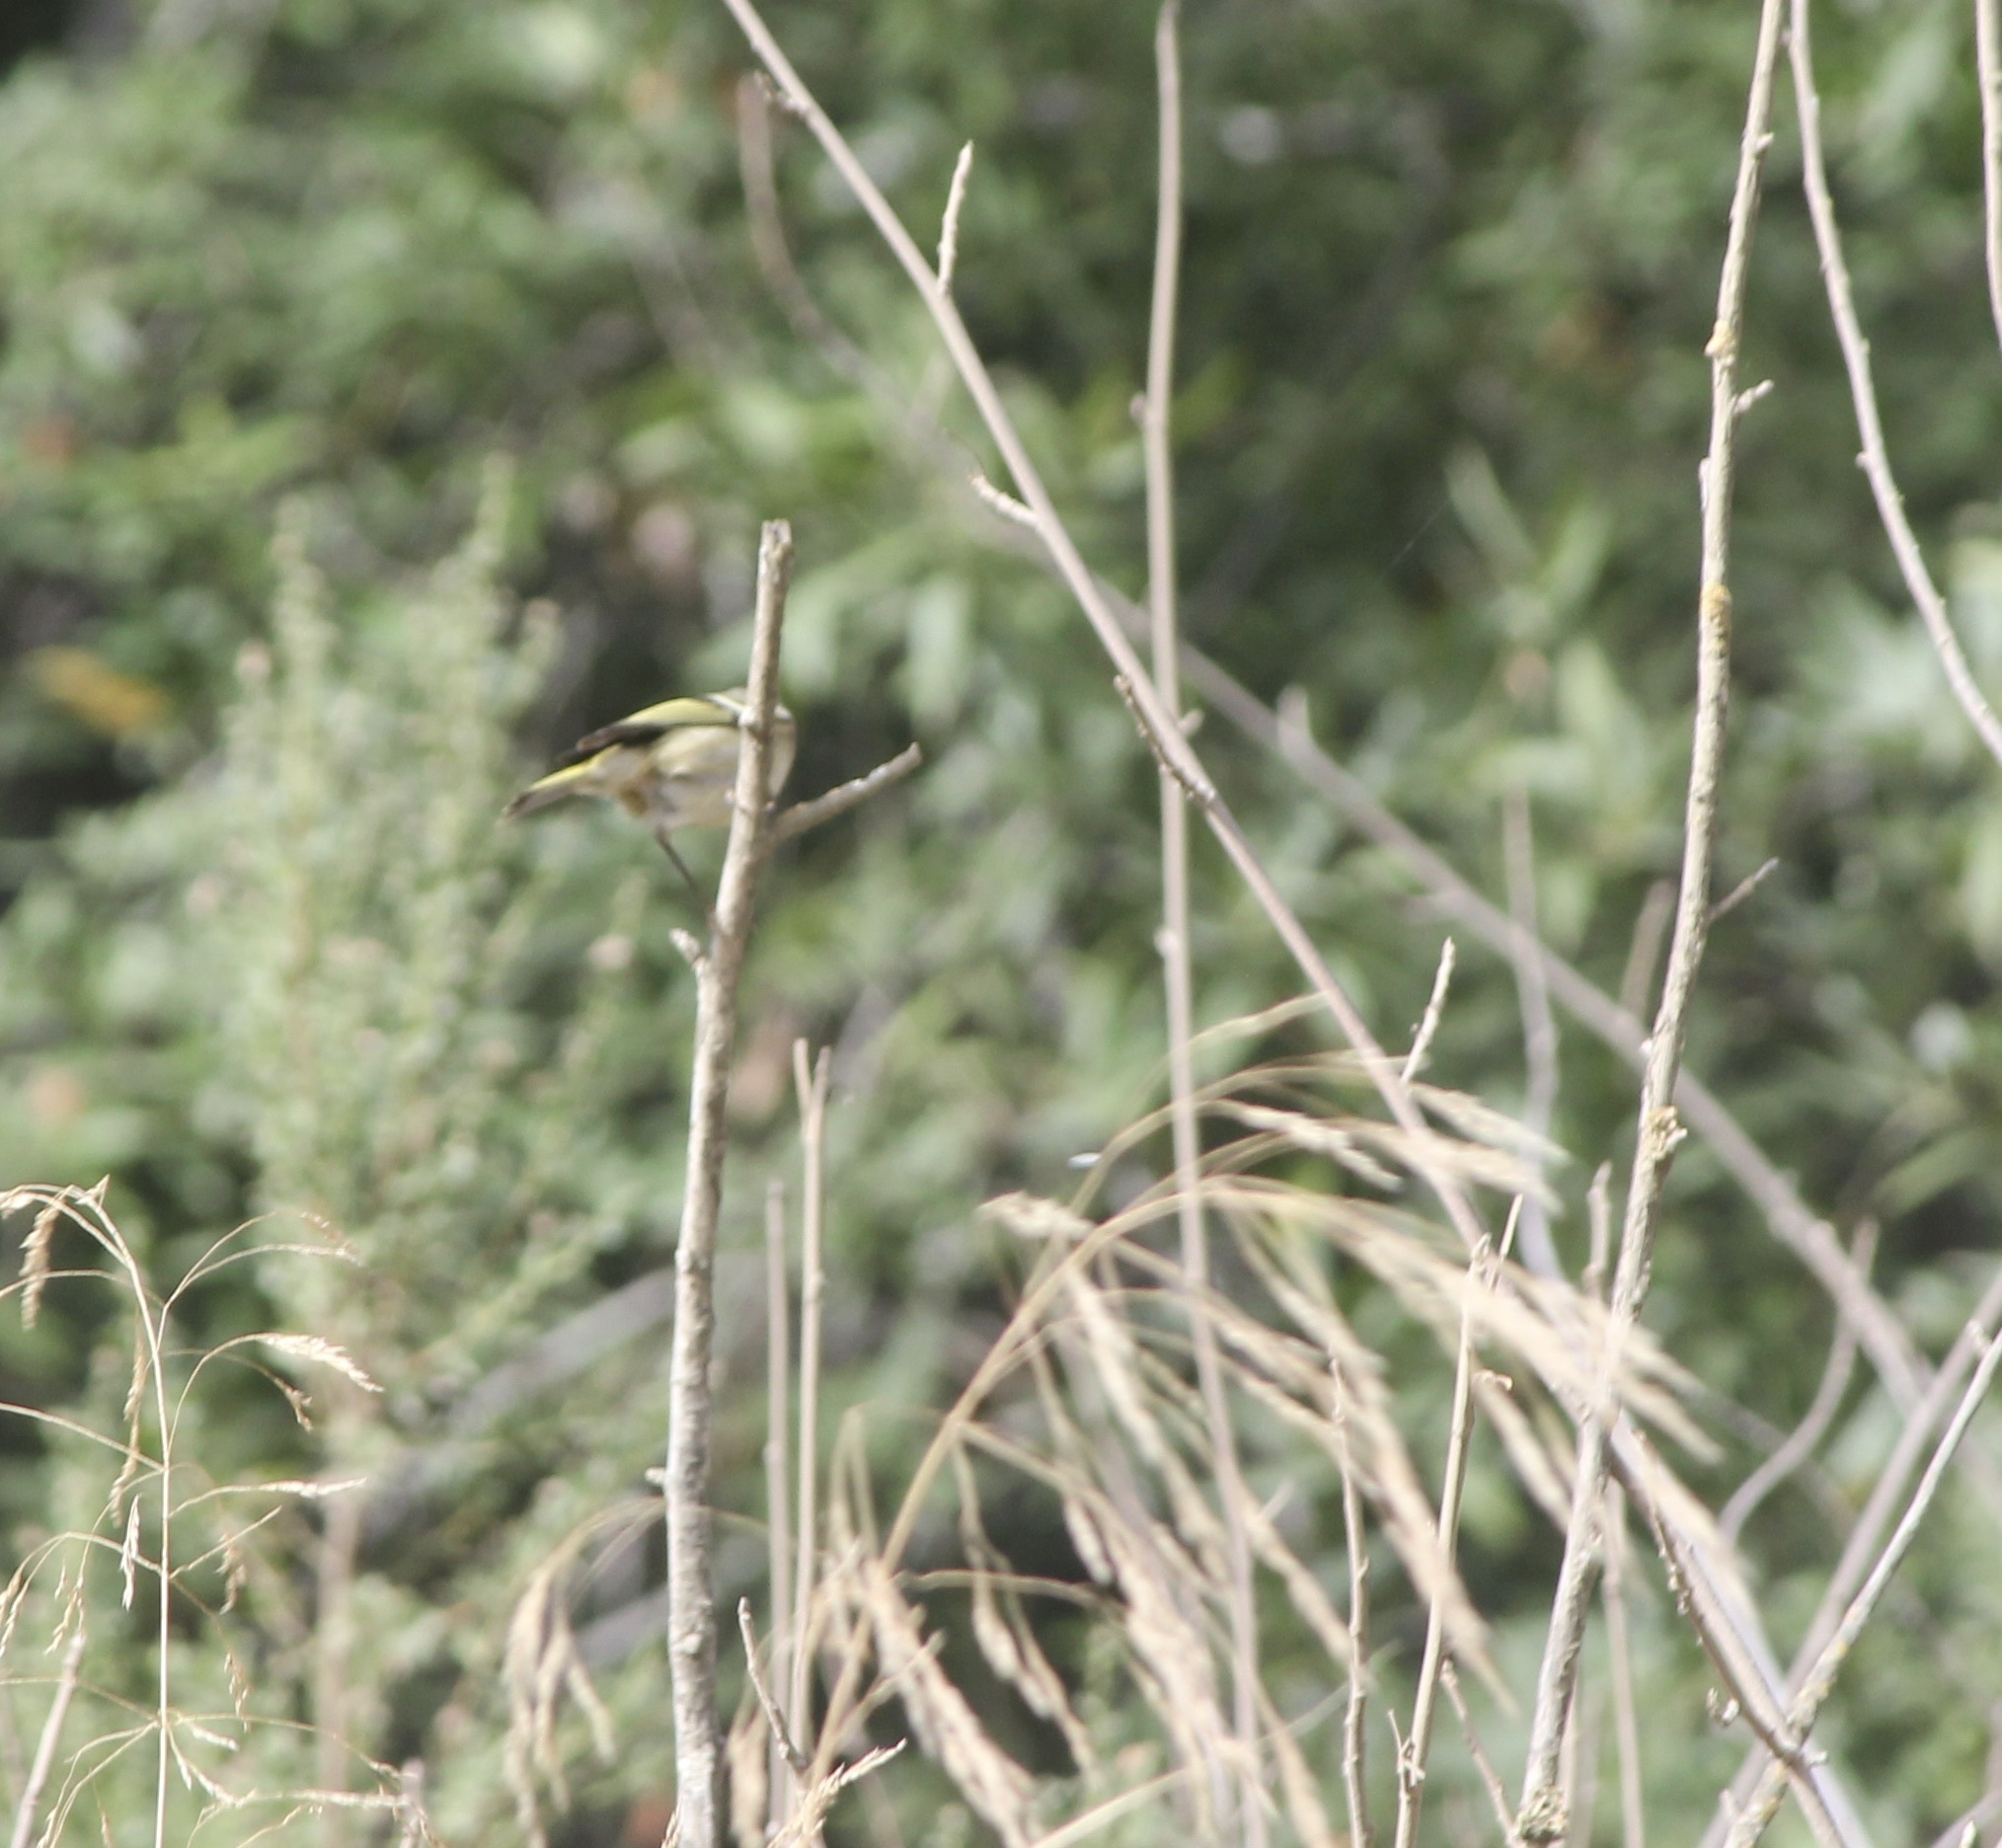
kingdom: Animalia
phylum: Chordata
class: Aves
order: Passeriformes
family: Regulidae
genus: Regulus
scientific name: Regulus calendula
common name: Ruby-crowned kinglet
